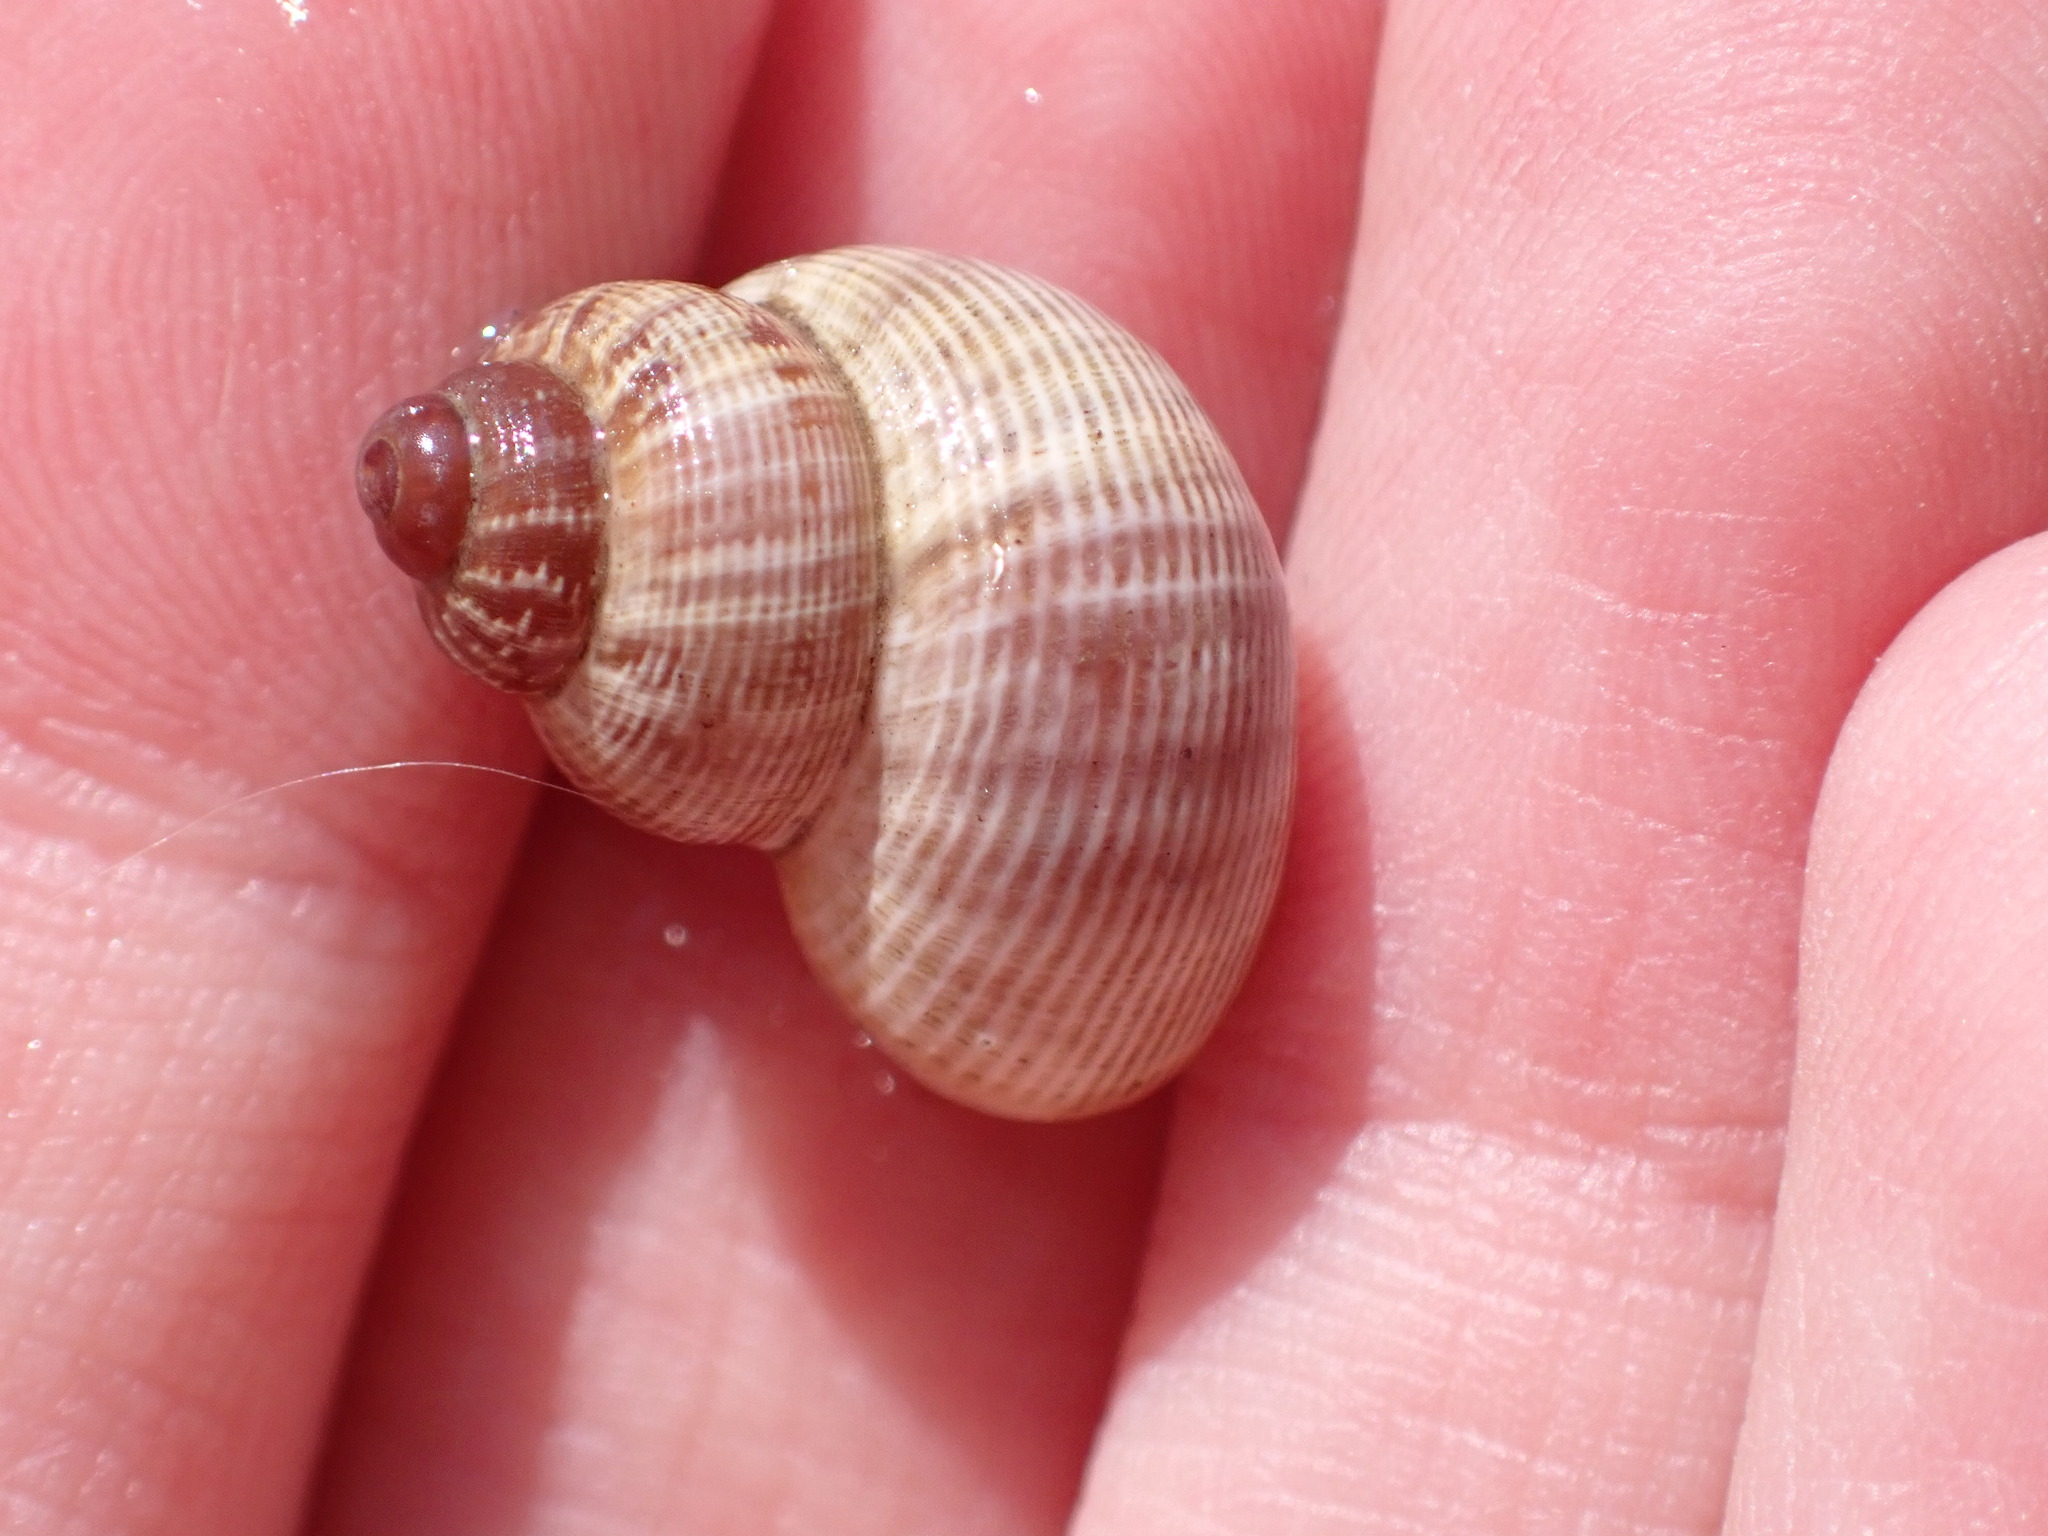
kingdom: Animalia
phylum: Mollusca
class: Gastropoda
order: Littorinimorpha
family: Pomatiidae
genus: Pomatias
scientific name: Pomatias elegans
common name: Red-mouthed snail
